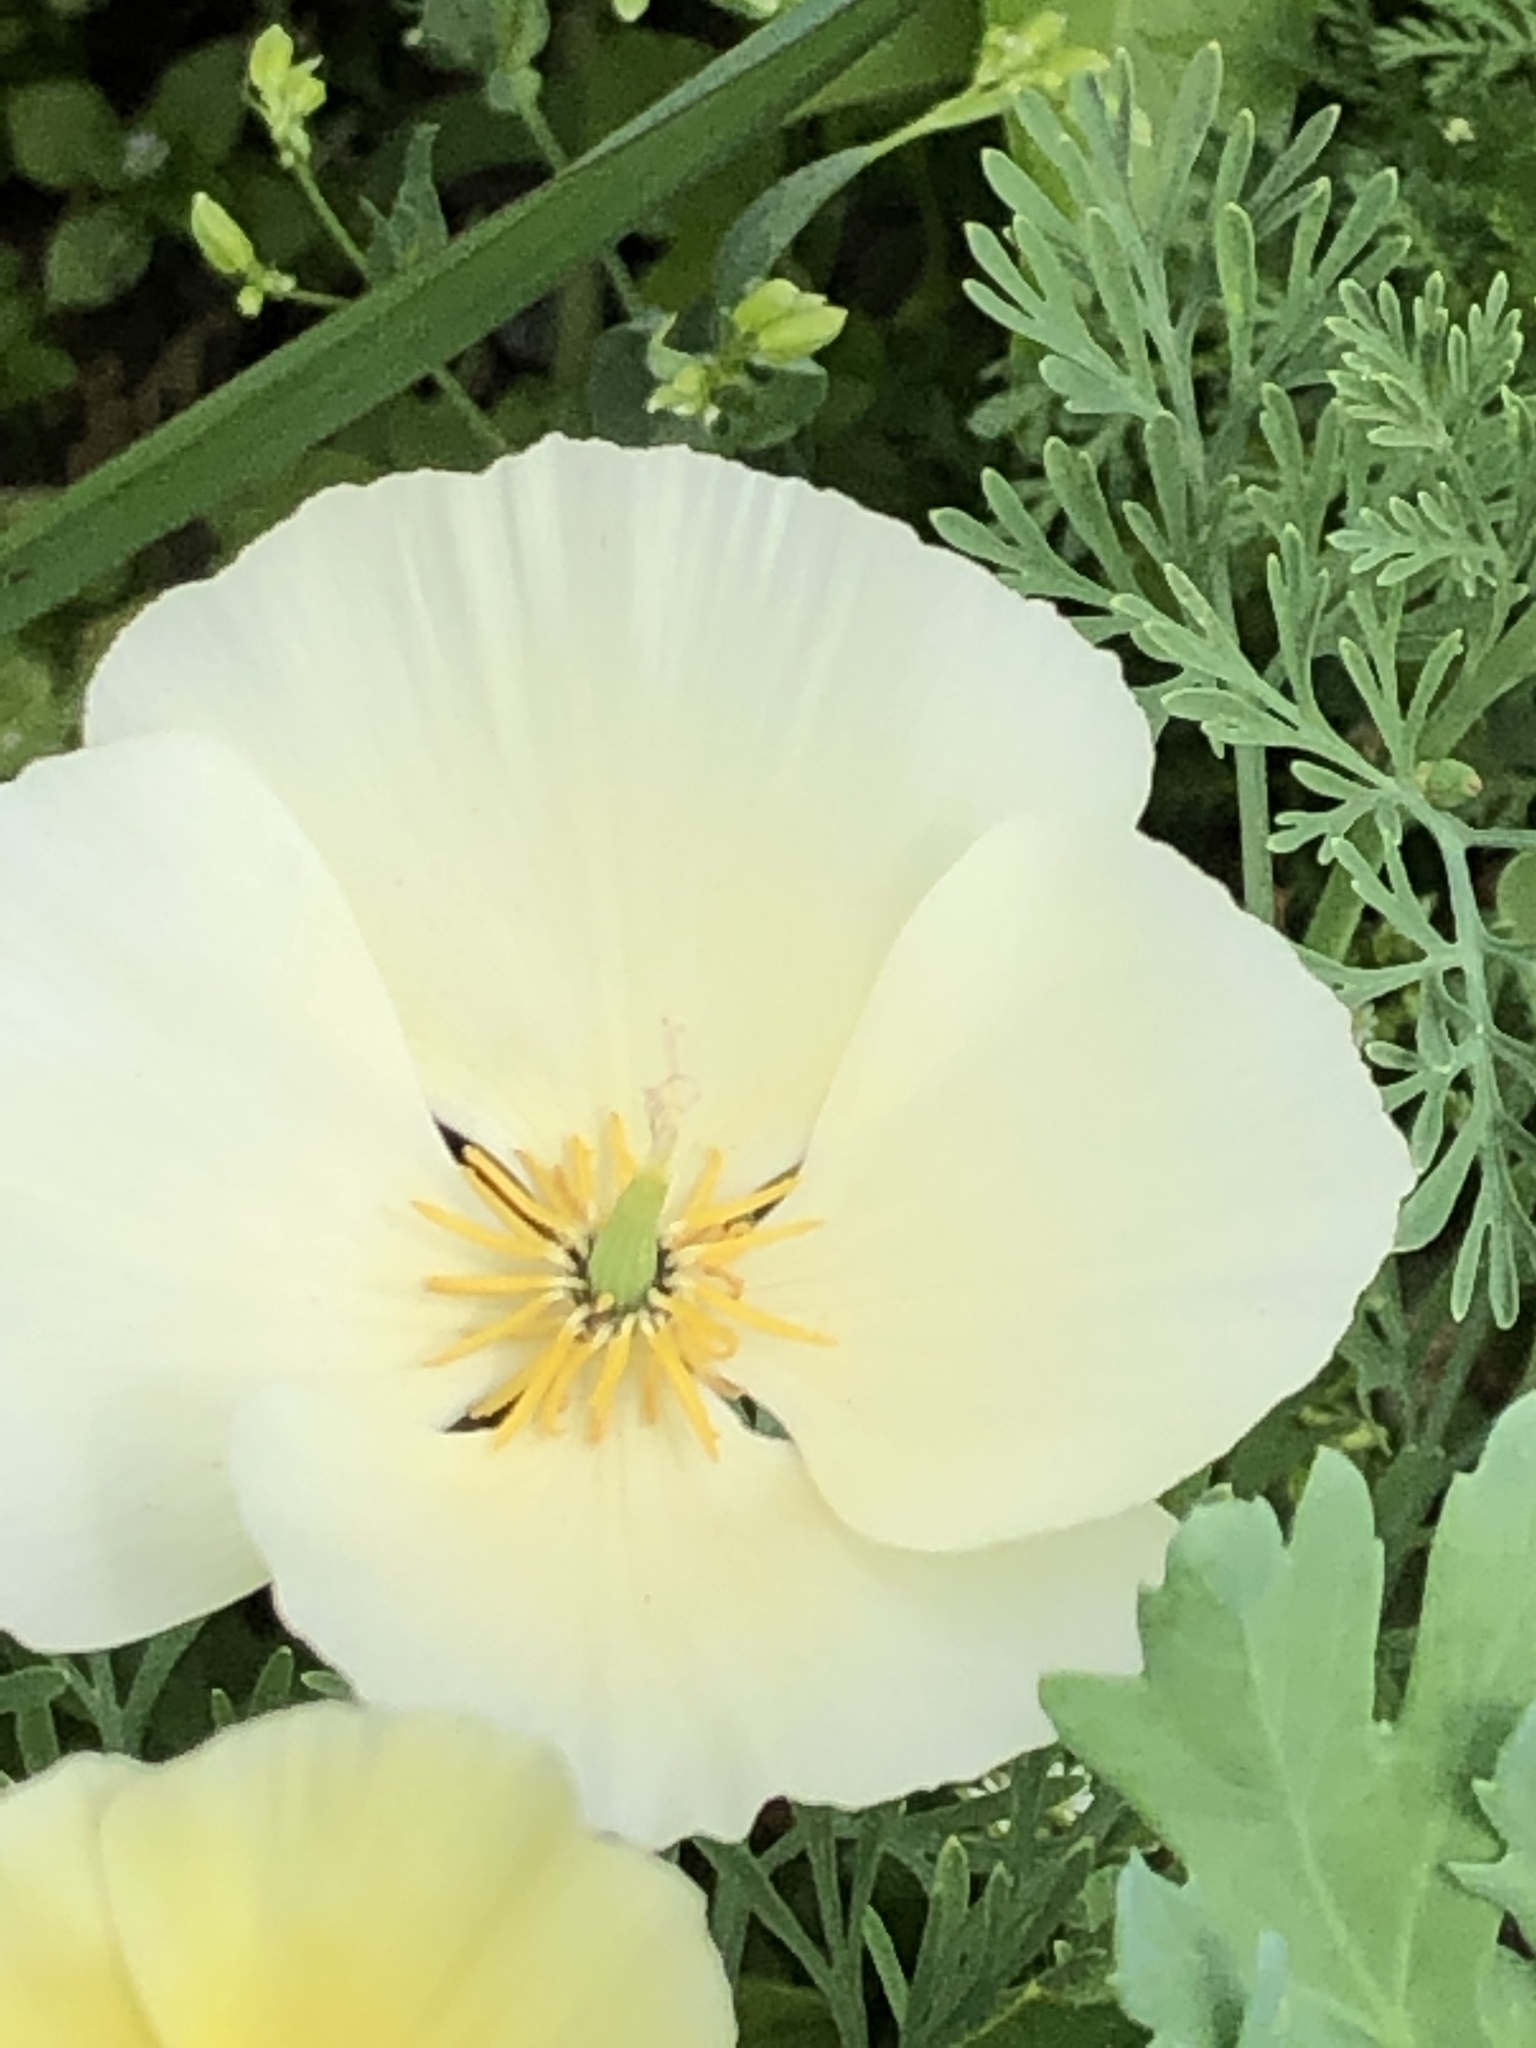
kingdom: Plantae
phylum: Tracheophyta
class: Magnoliopsida
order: Ranunculales
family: Papaveraceae
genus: Eschscholzia
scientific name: Eschscholzia californica
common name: California poppy
